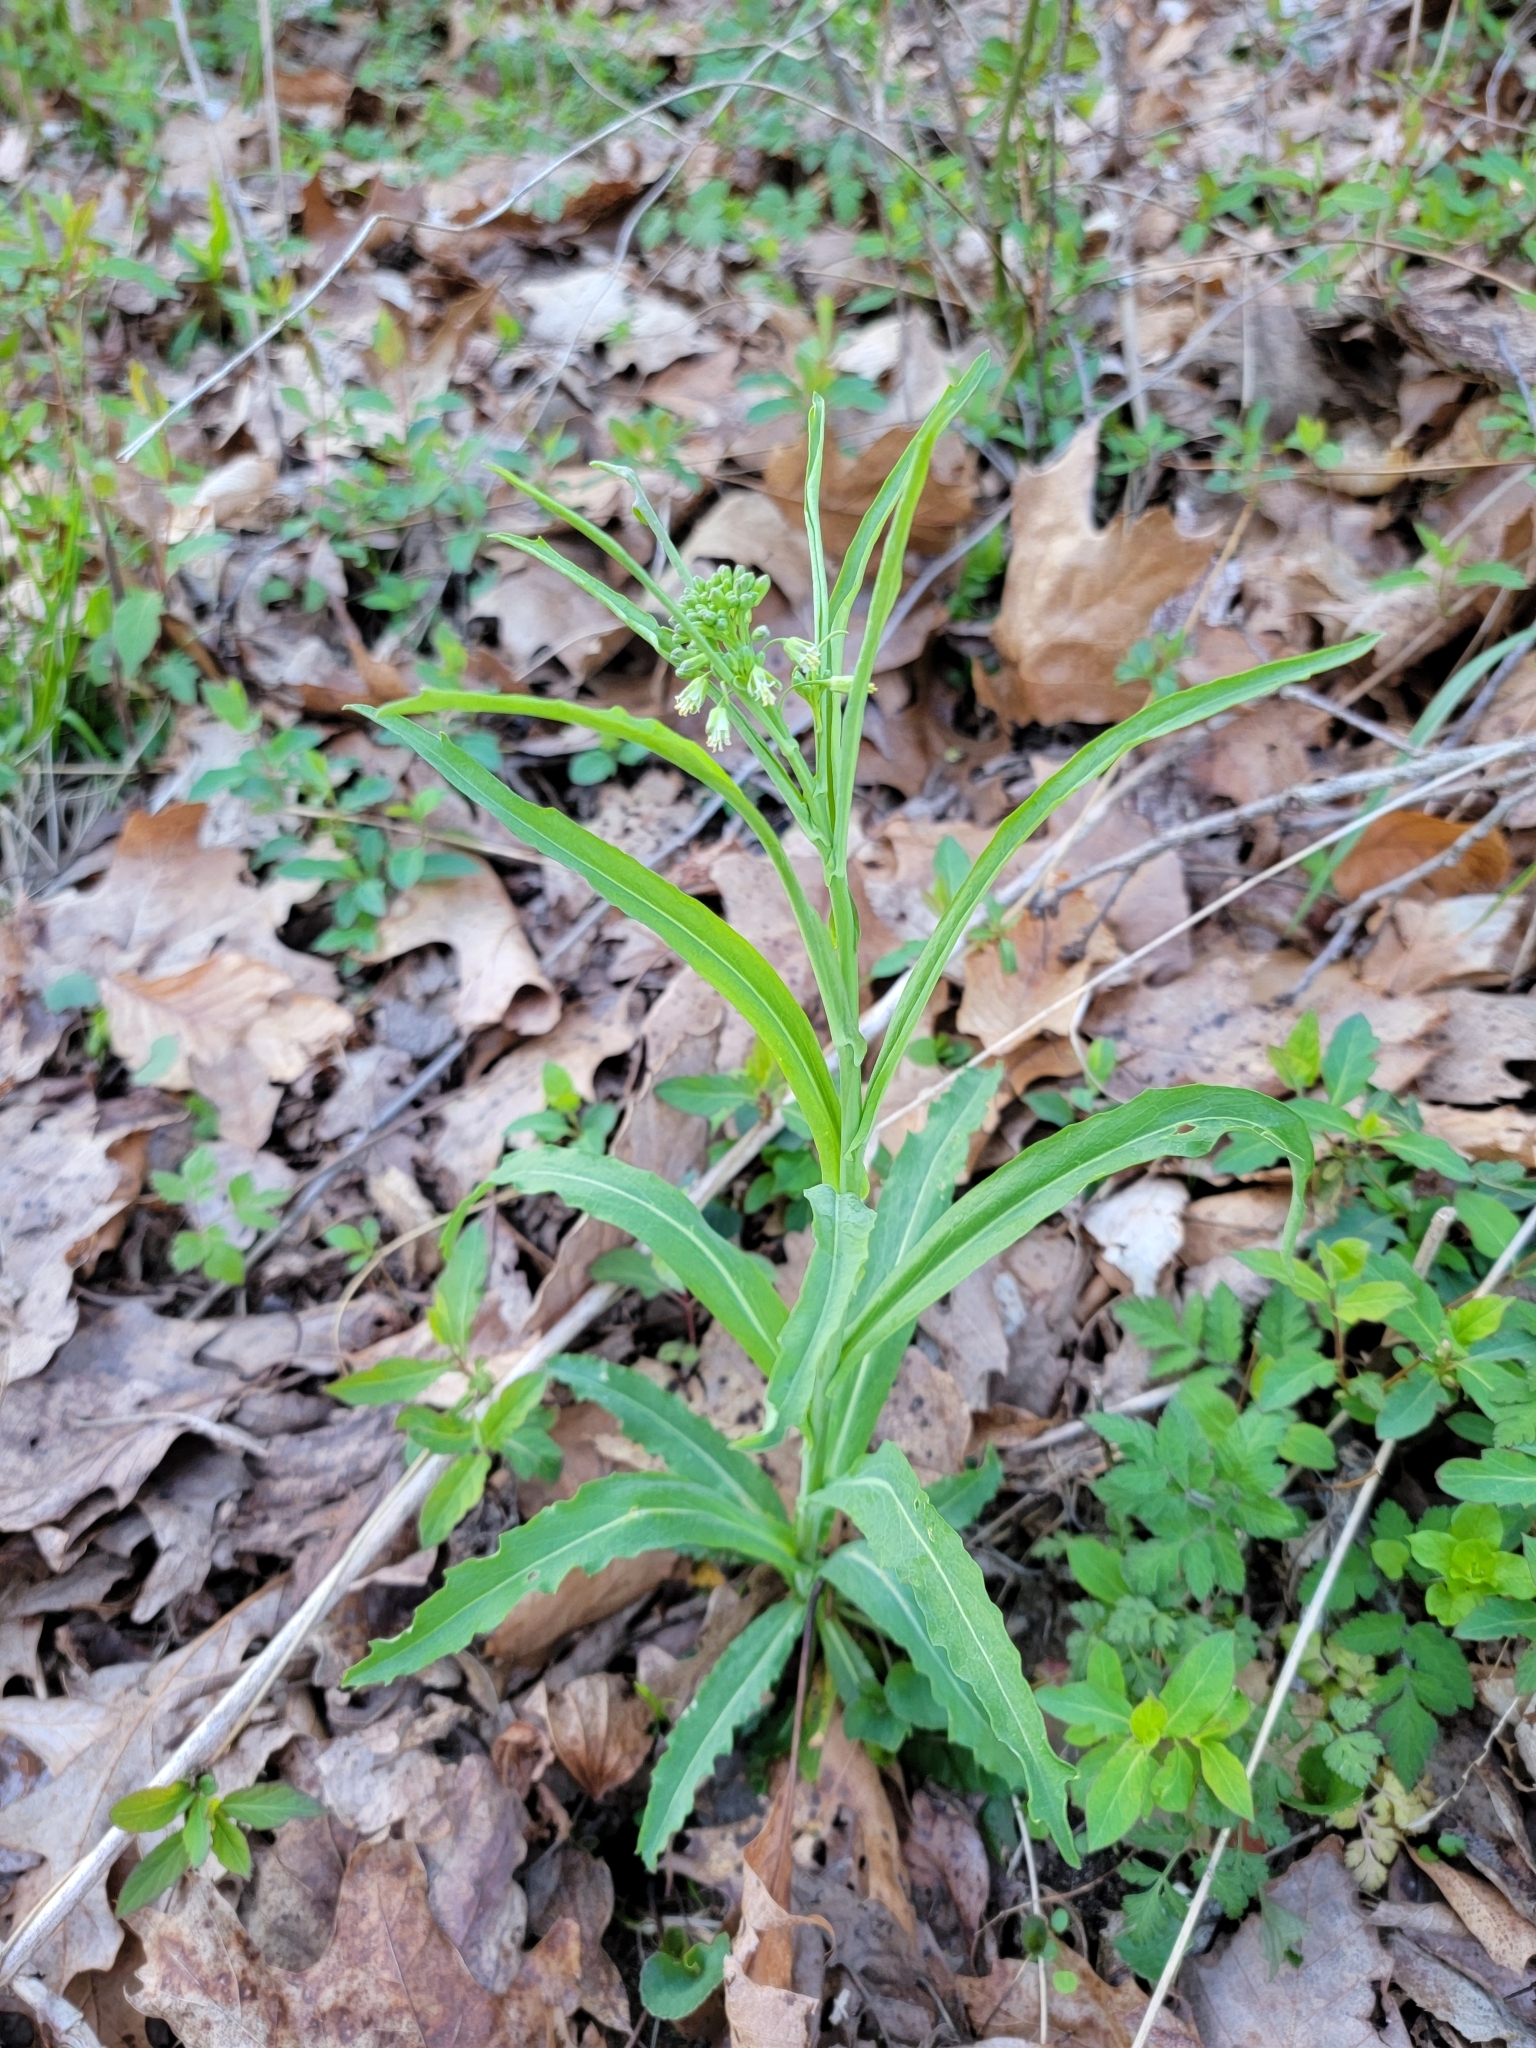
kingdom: Plantae
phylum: Tracheophyta
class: Magnoliopsida
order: Brassicales
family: Brassicaceae
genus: Borodinia
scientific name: Borodinia laevigata
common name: Smooth rockcress
